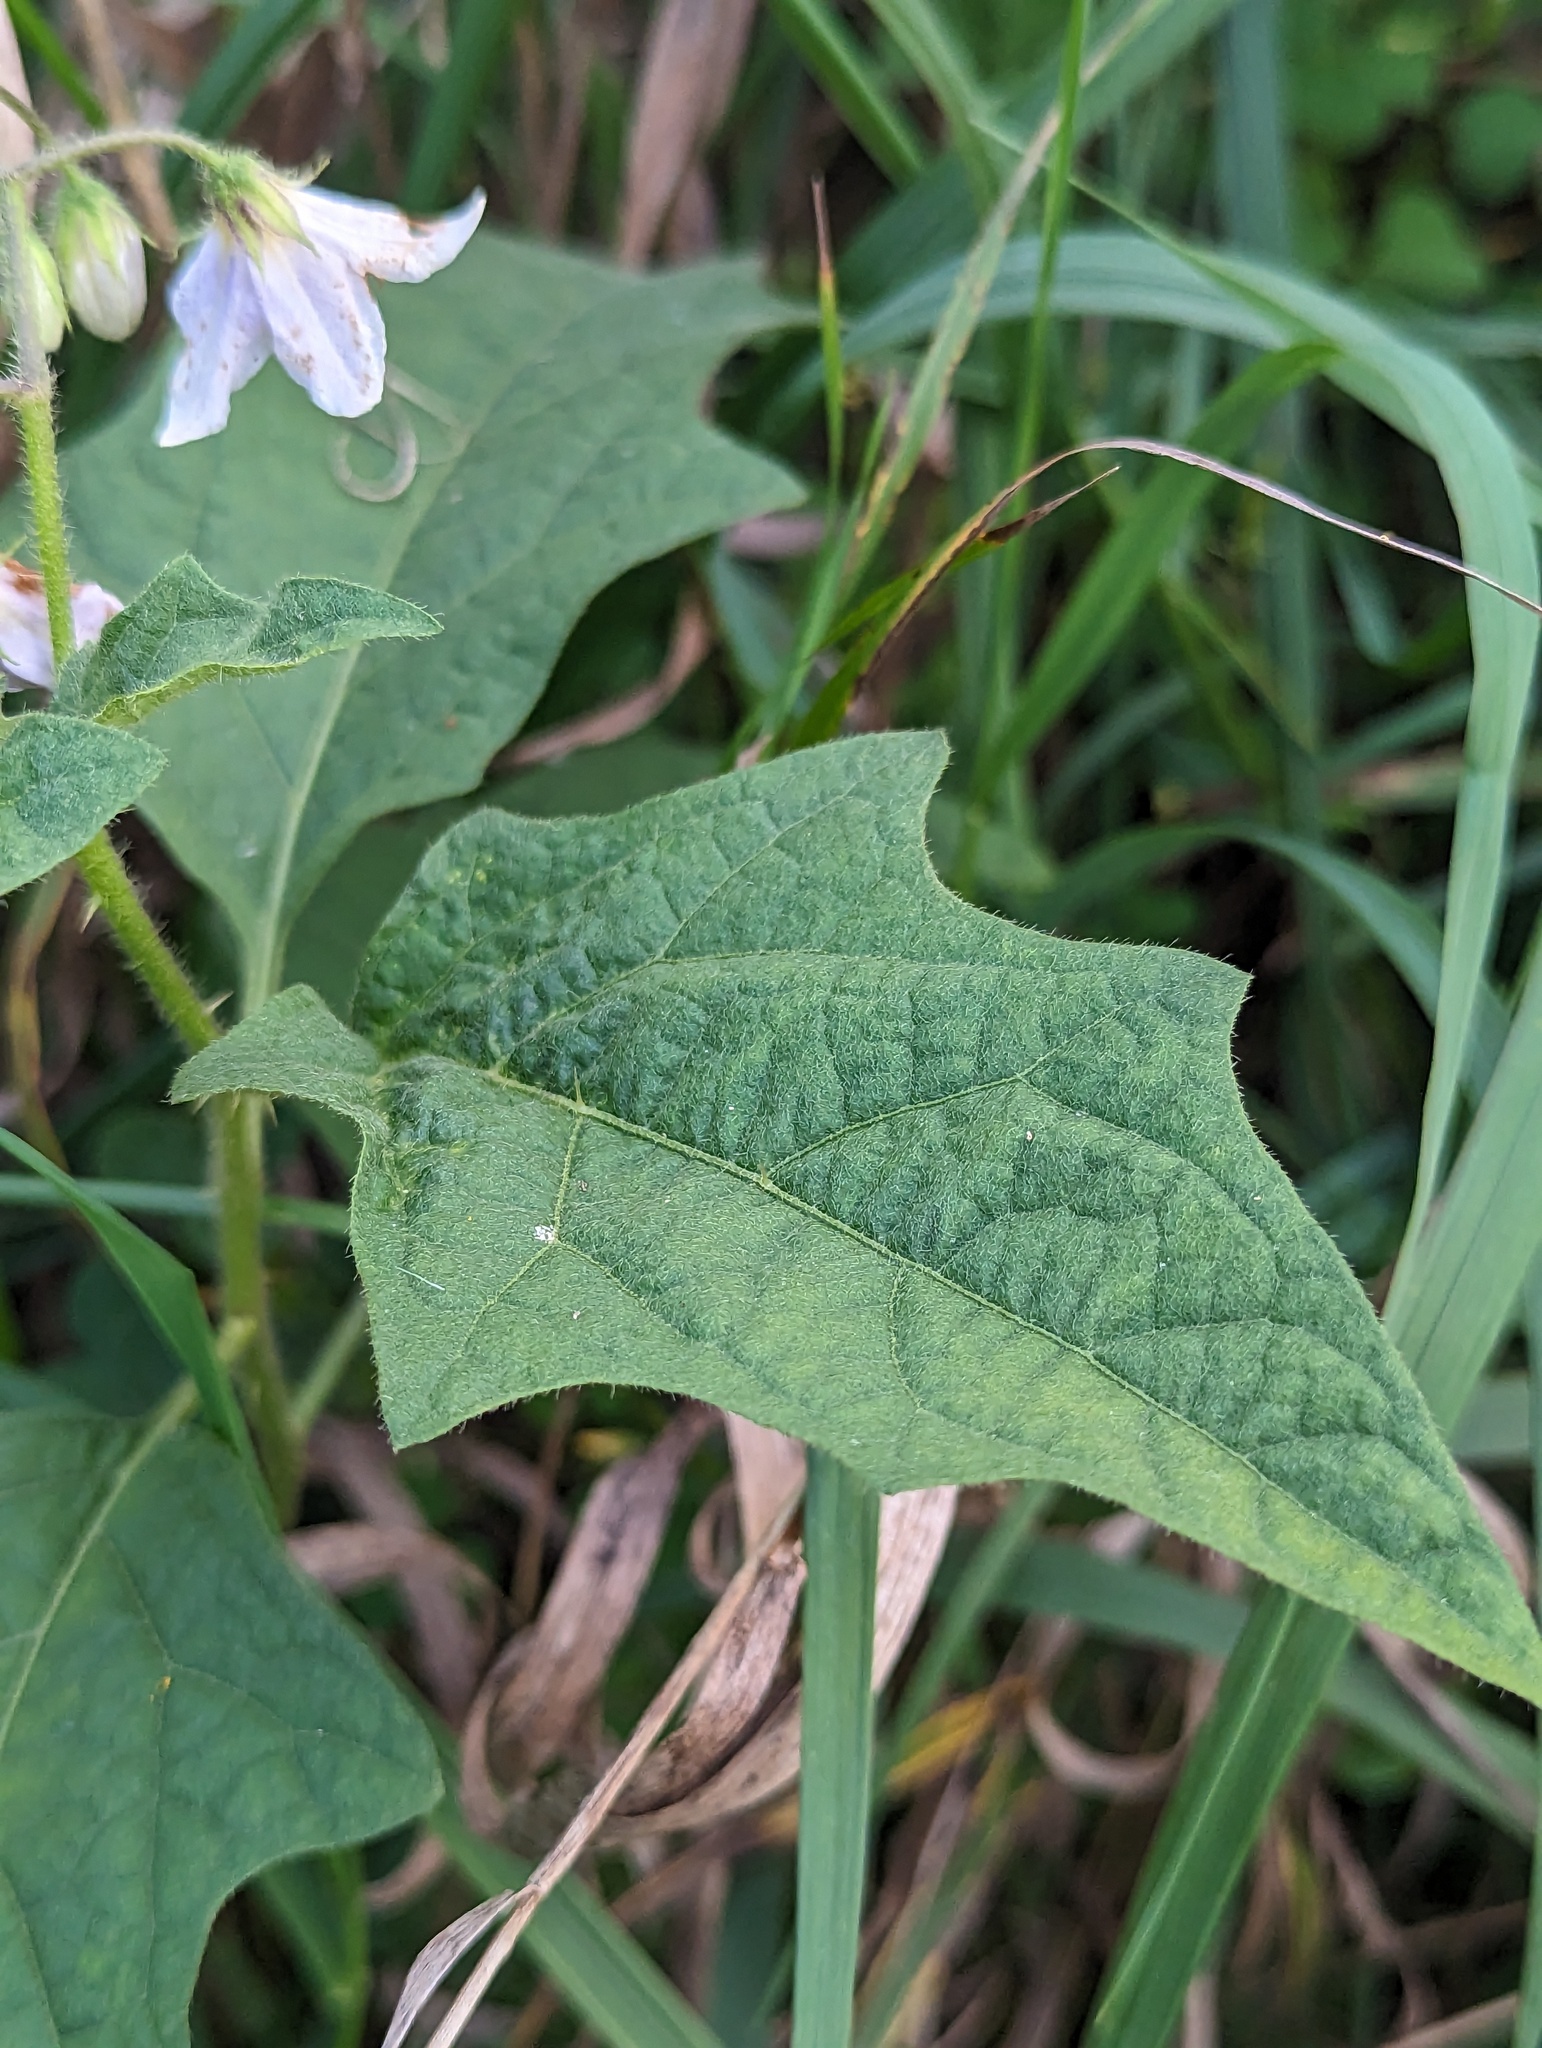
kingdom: Plantae
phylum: Tracheophyta
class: Magnoliopsida
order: Solanales
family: Solanaceae
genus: Solanum
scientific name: Solanum carolinense
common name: Horse-nettle
